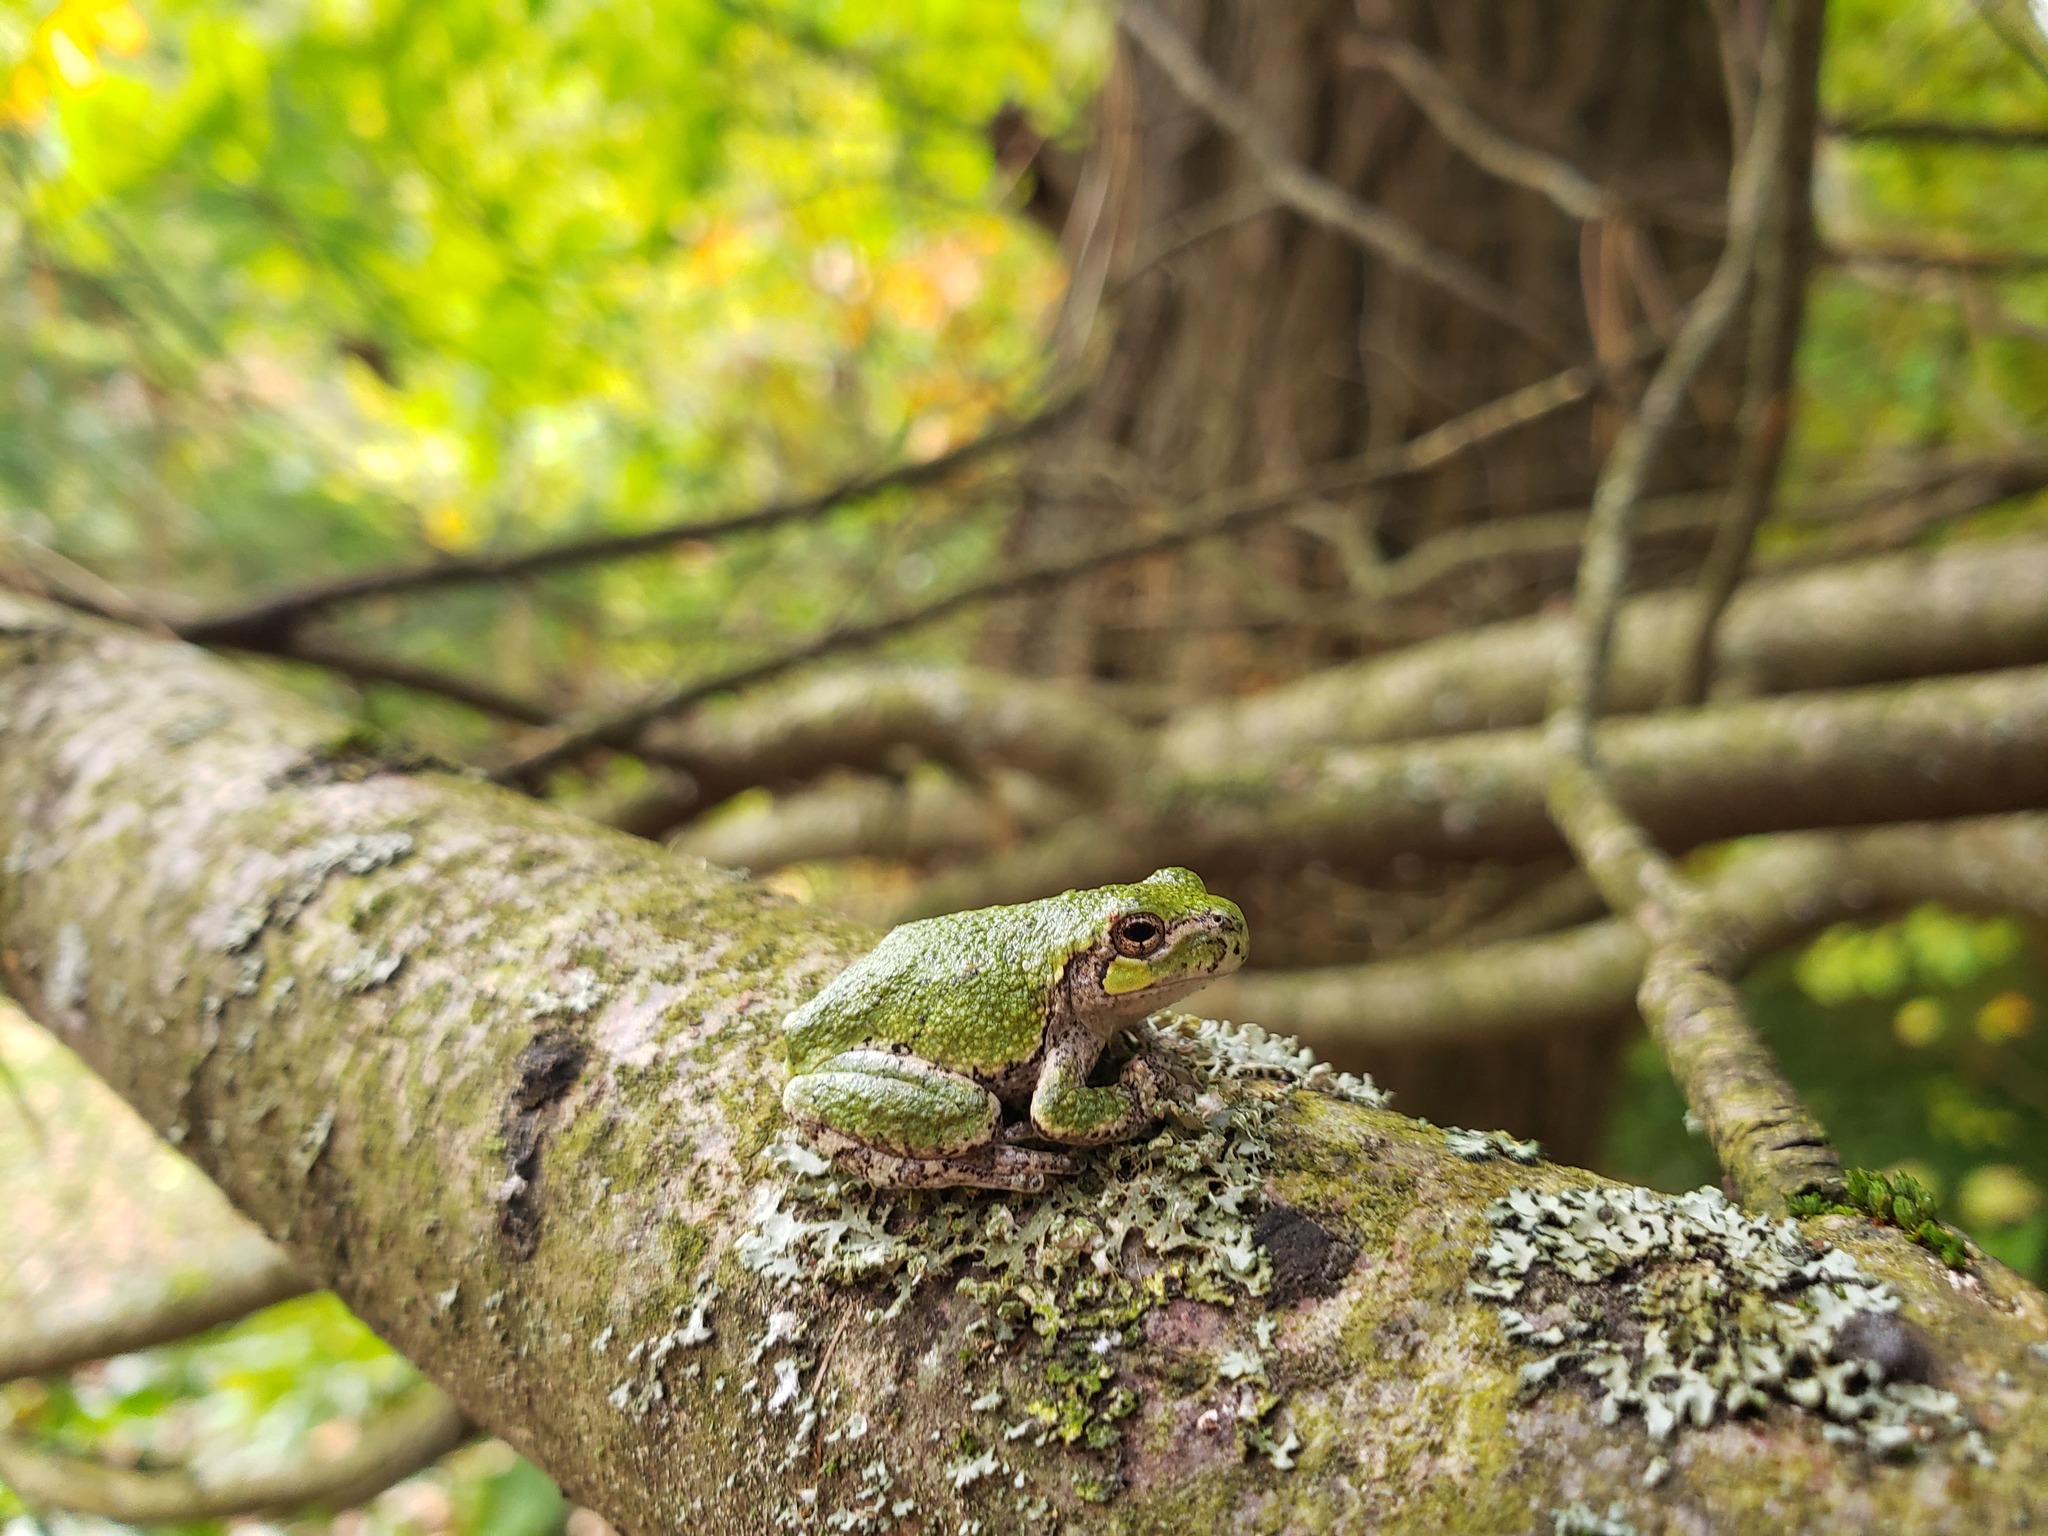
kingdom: Animalia
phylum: Chordata
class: Amphibia
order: Anura
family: Hylidae
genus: Dryophytes
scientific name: Dryophytes versicolor
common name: Gray treefrog
